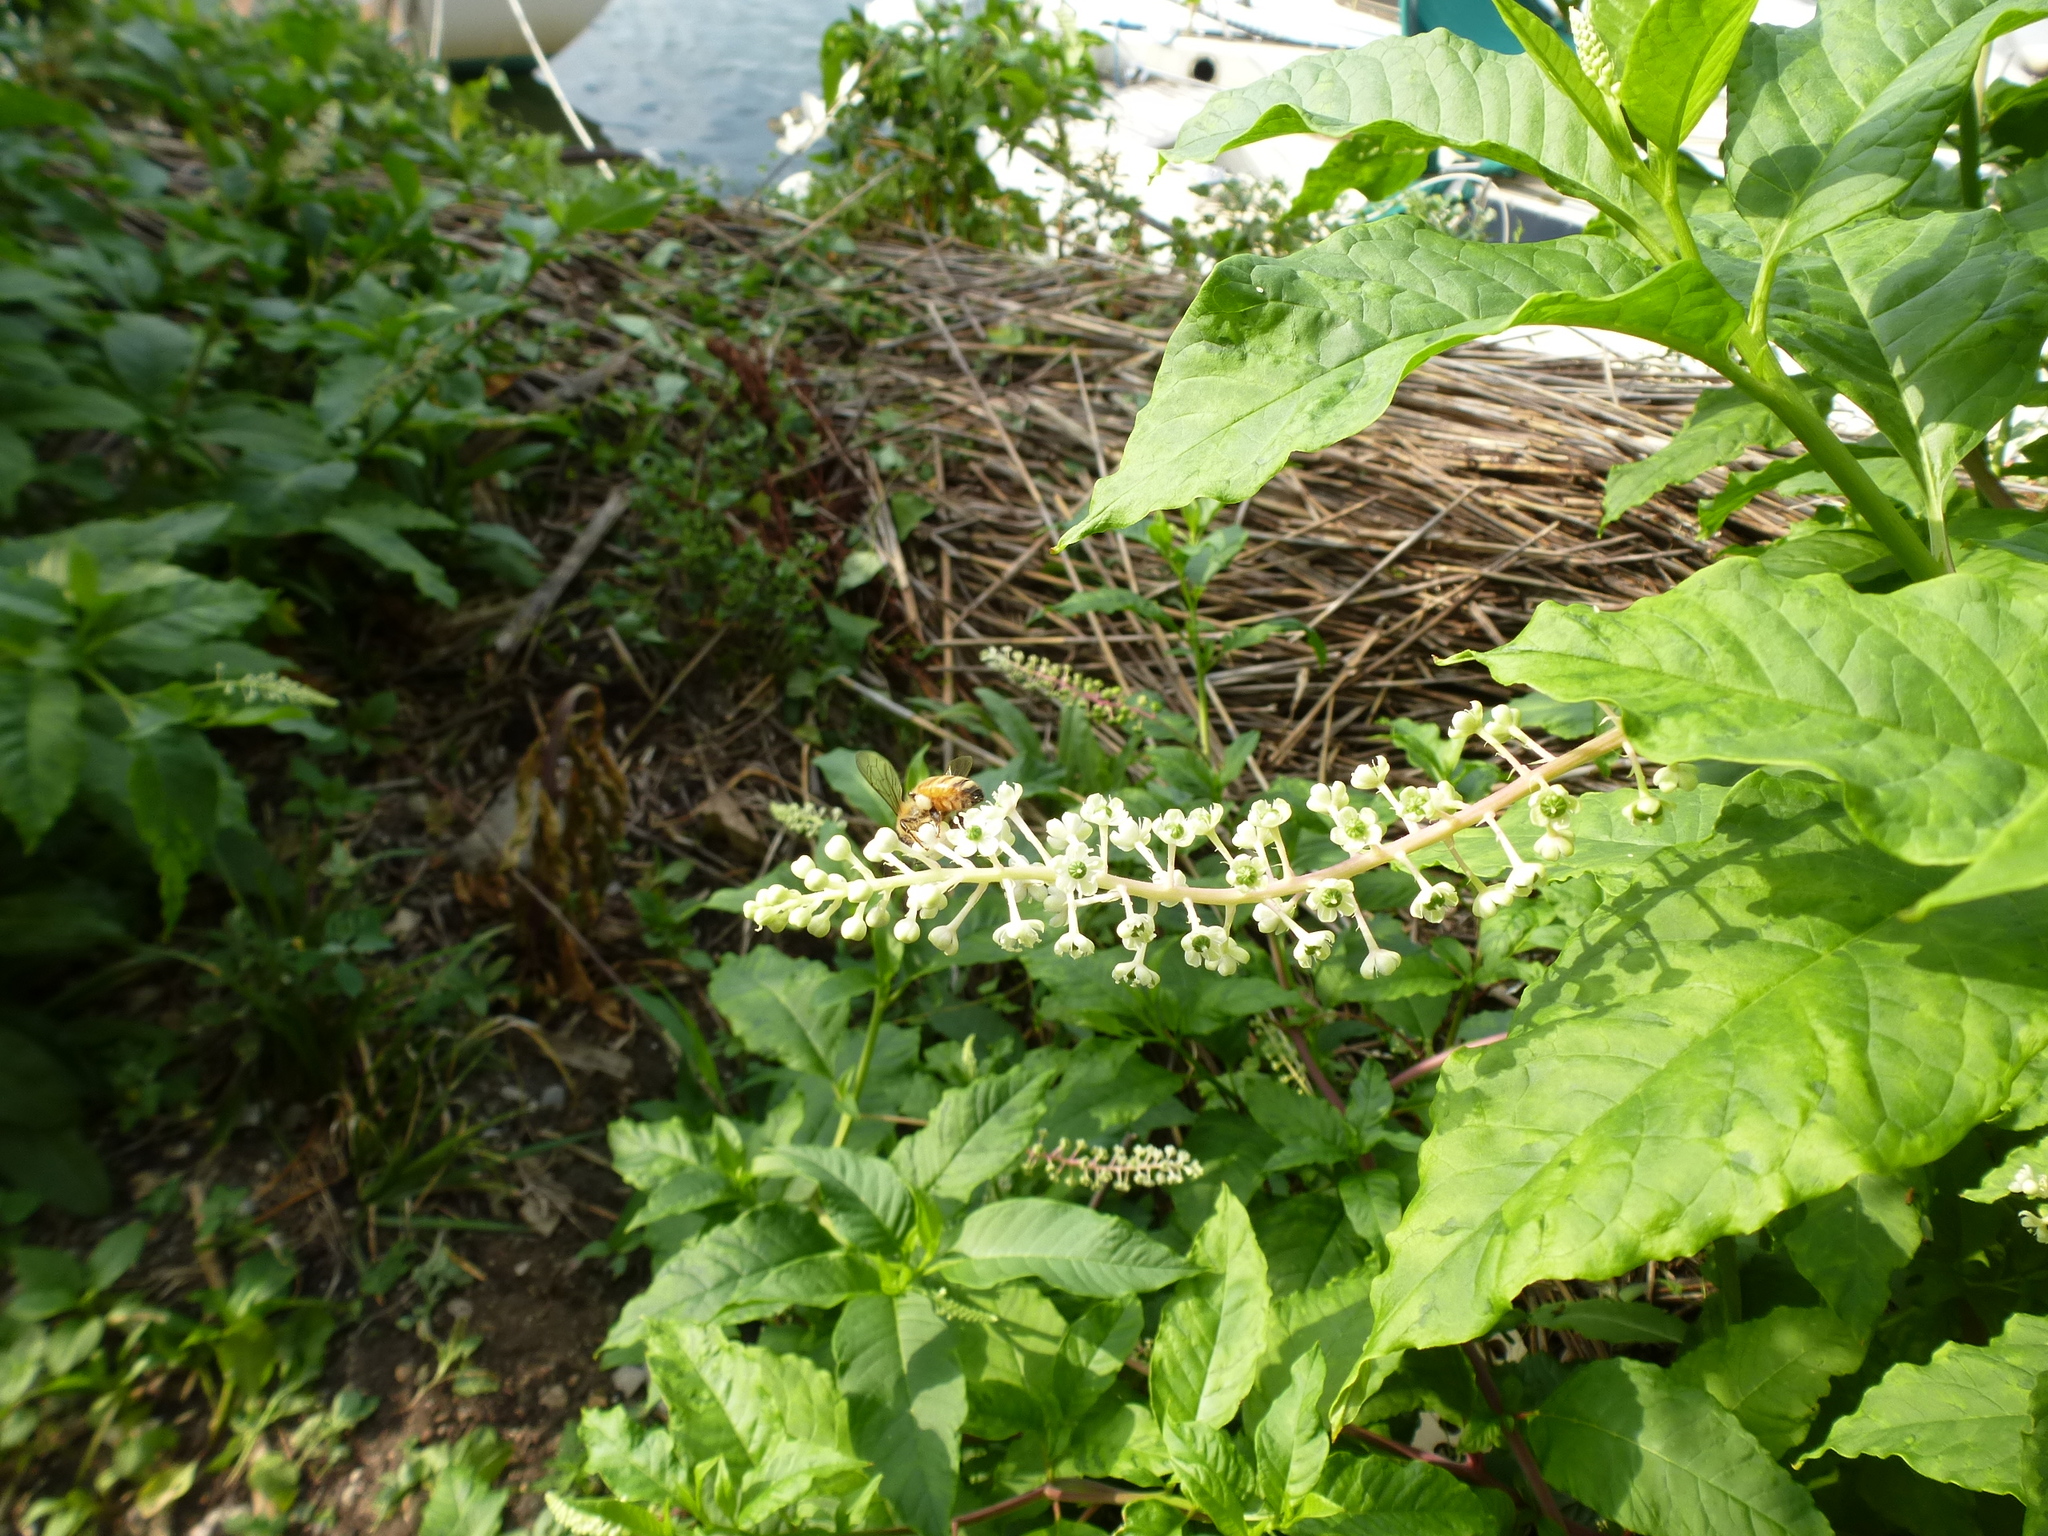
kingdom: Animalia
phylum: Arthropoda
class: Insecta
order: Hymenoptera
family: Apidae
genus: Apis
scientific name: Apis mellifera
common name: Honey bee
